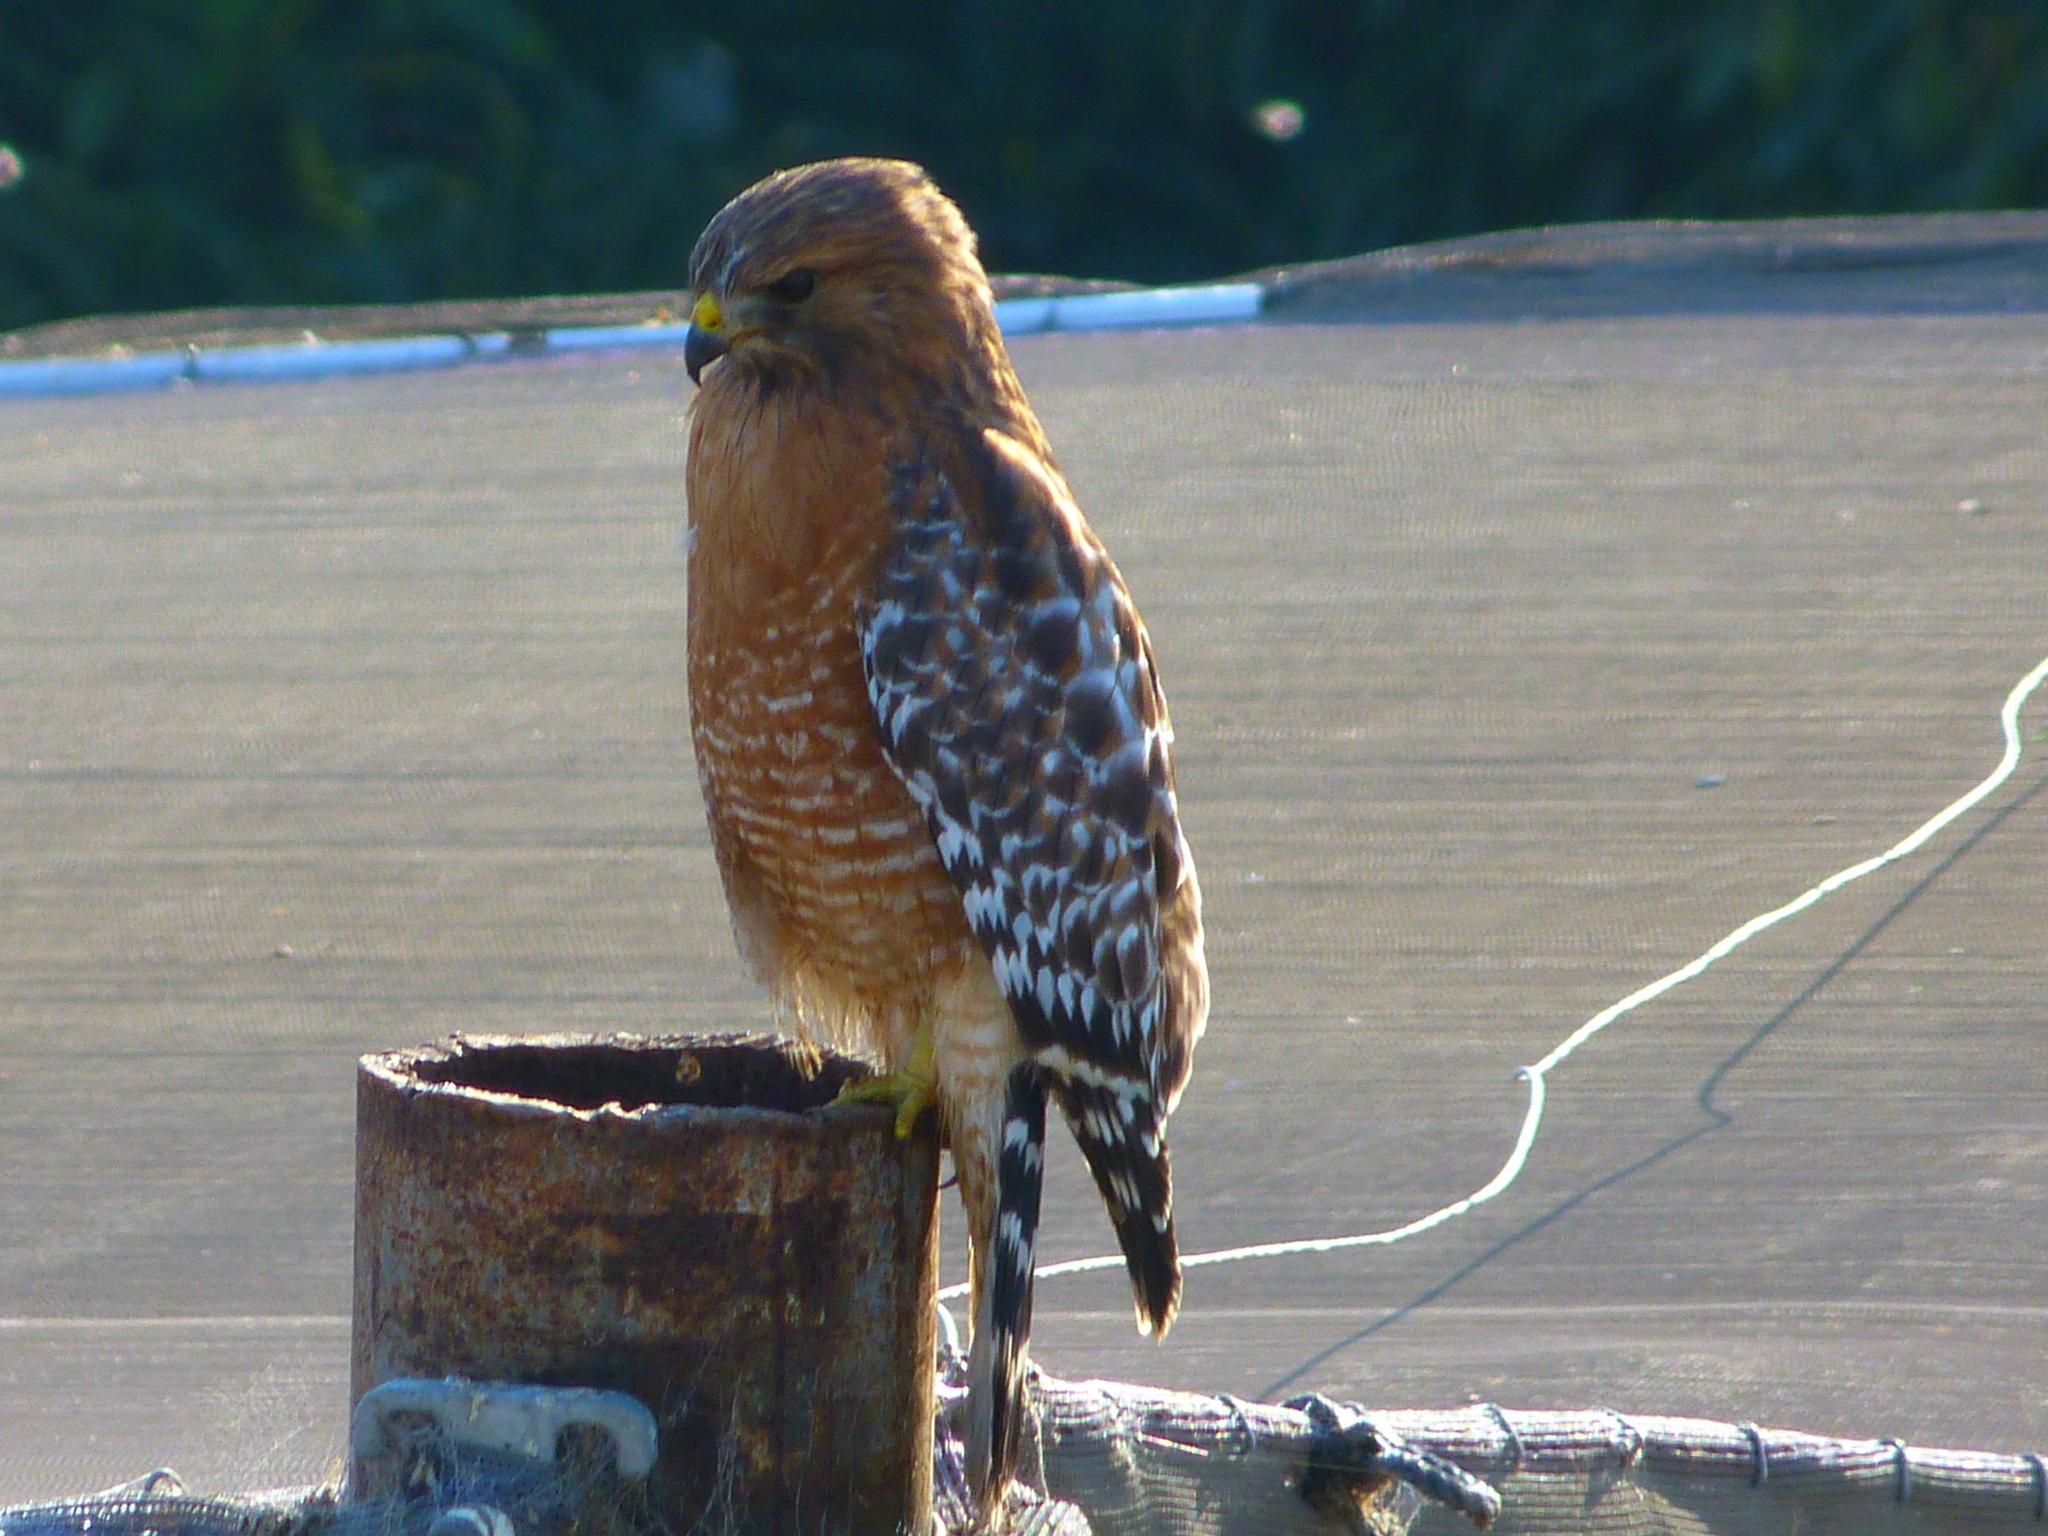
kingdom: Animalia
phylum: Chordata
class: Aves
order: Accipitriformes
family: Accipitridae
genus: Buteo
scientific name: Buteo lineatus
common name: Red-shouldered hawk
